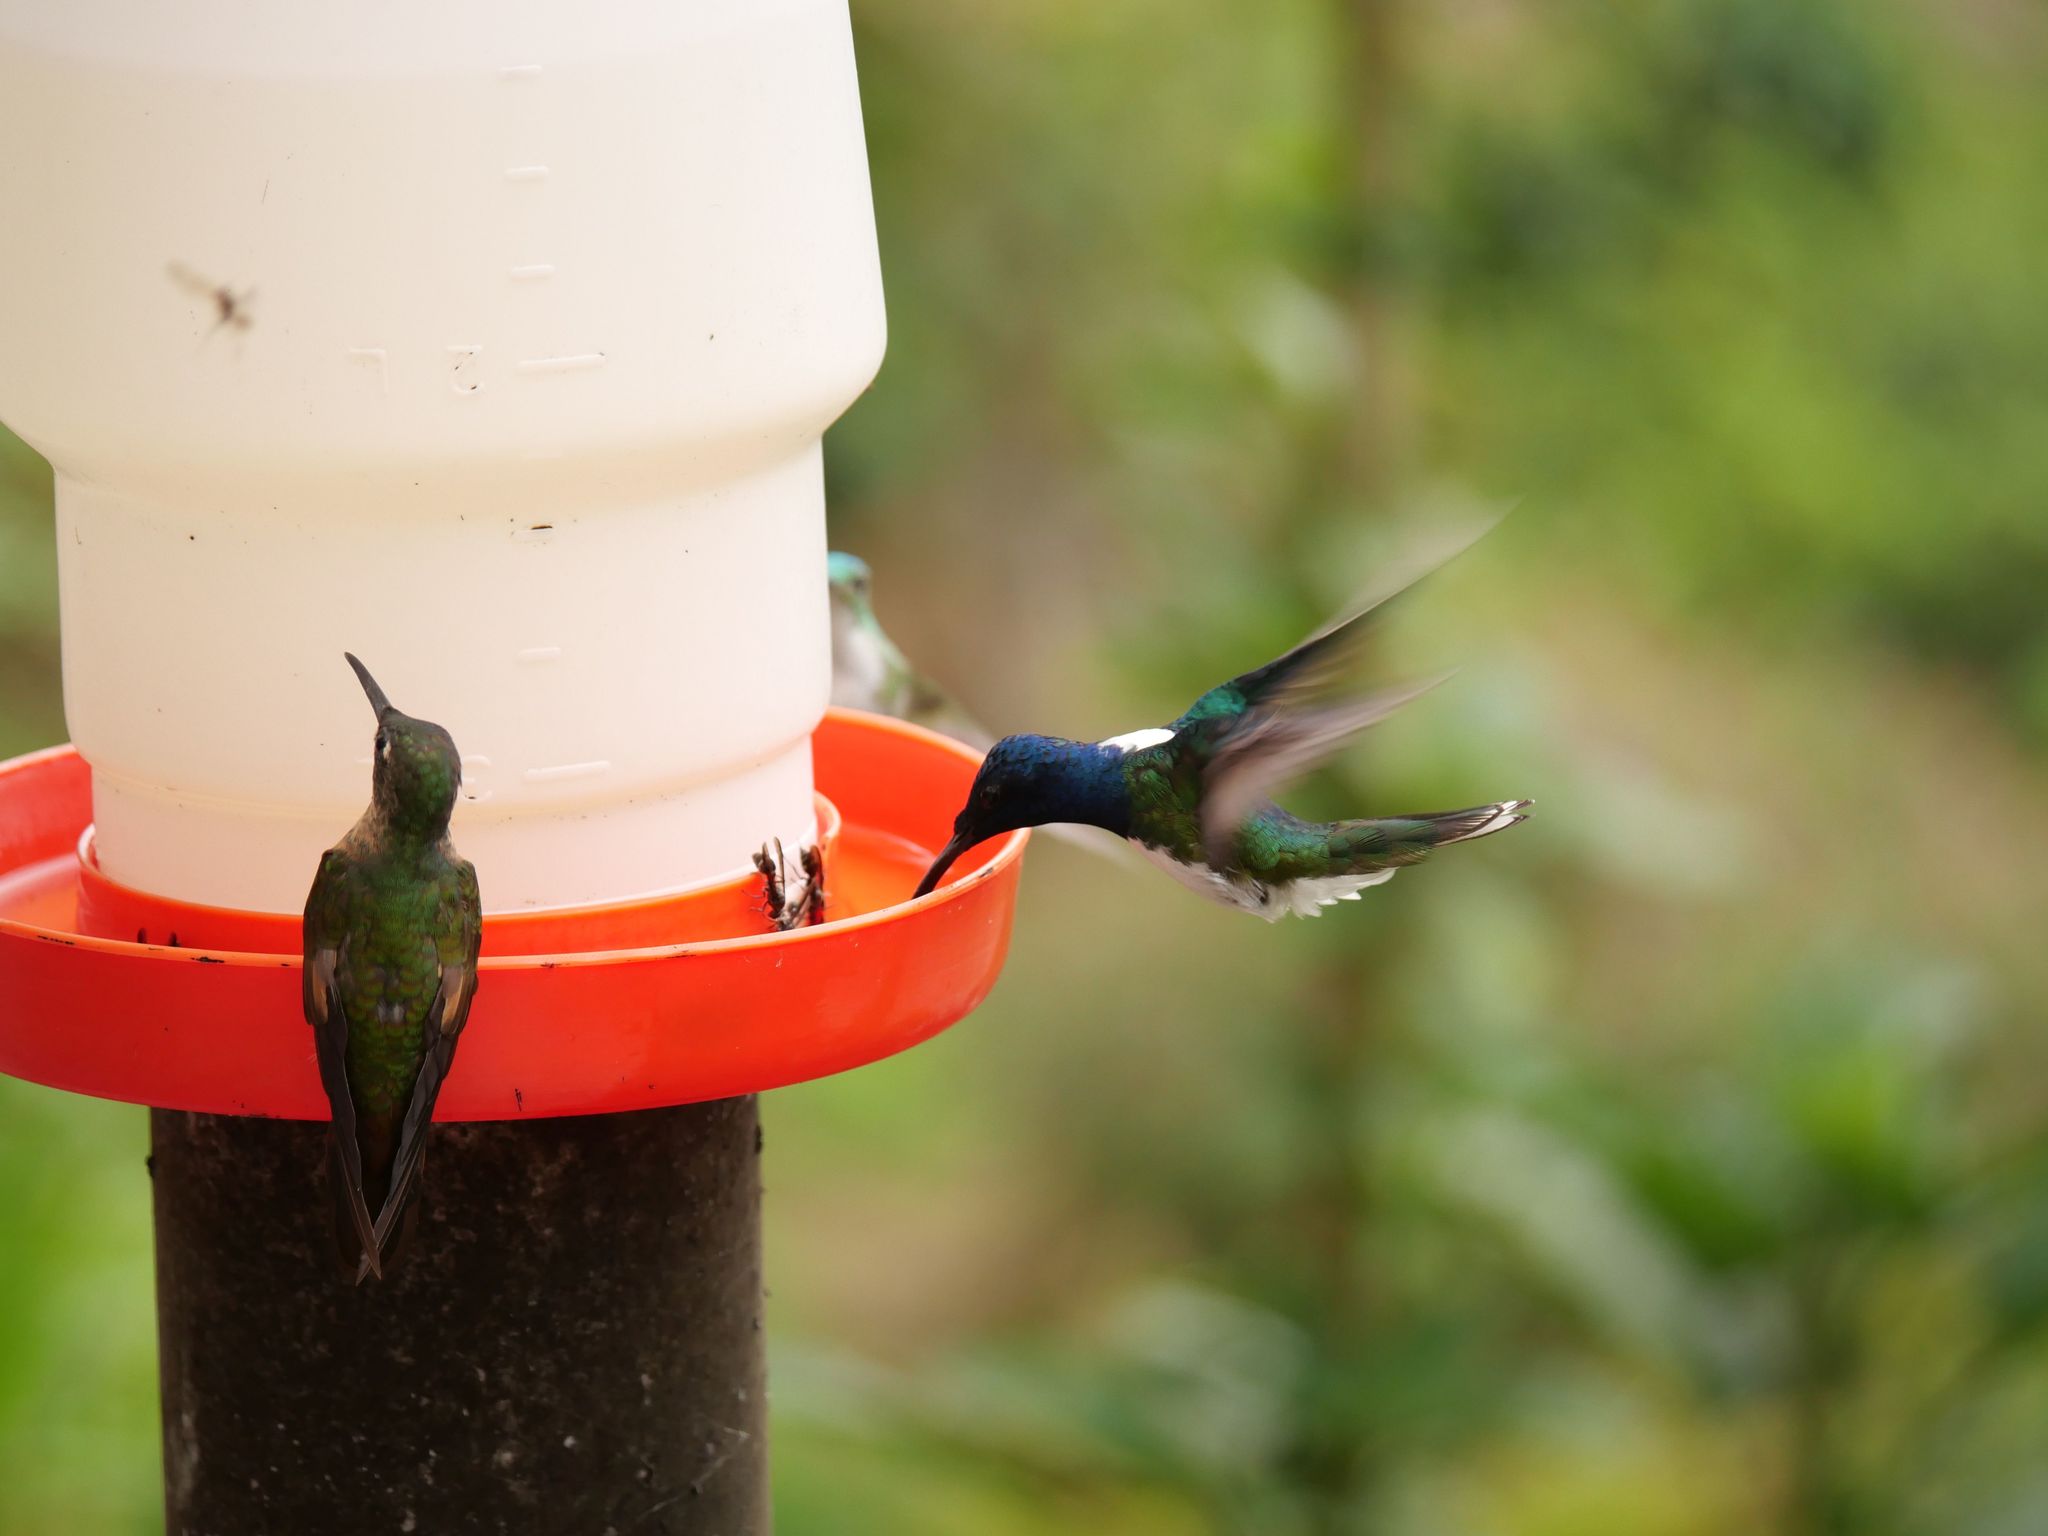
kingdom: Animalia
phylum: Chordata
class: Aves
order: Apodiformes
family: Trochilidae
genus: Florisuga
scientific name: Florisuga mellivora
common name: White-necked jacobin
